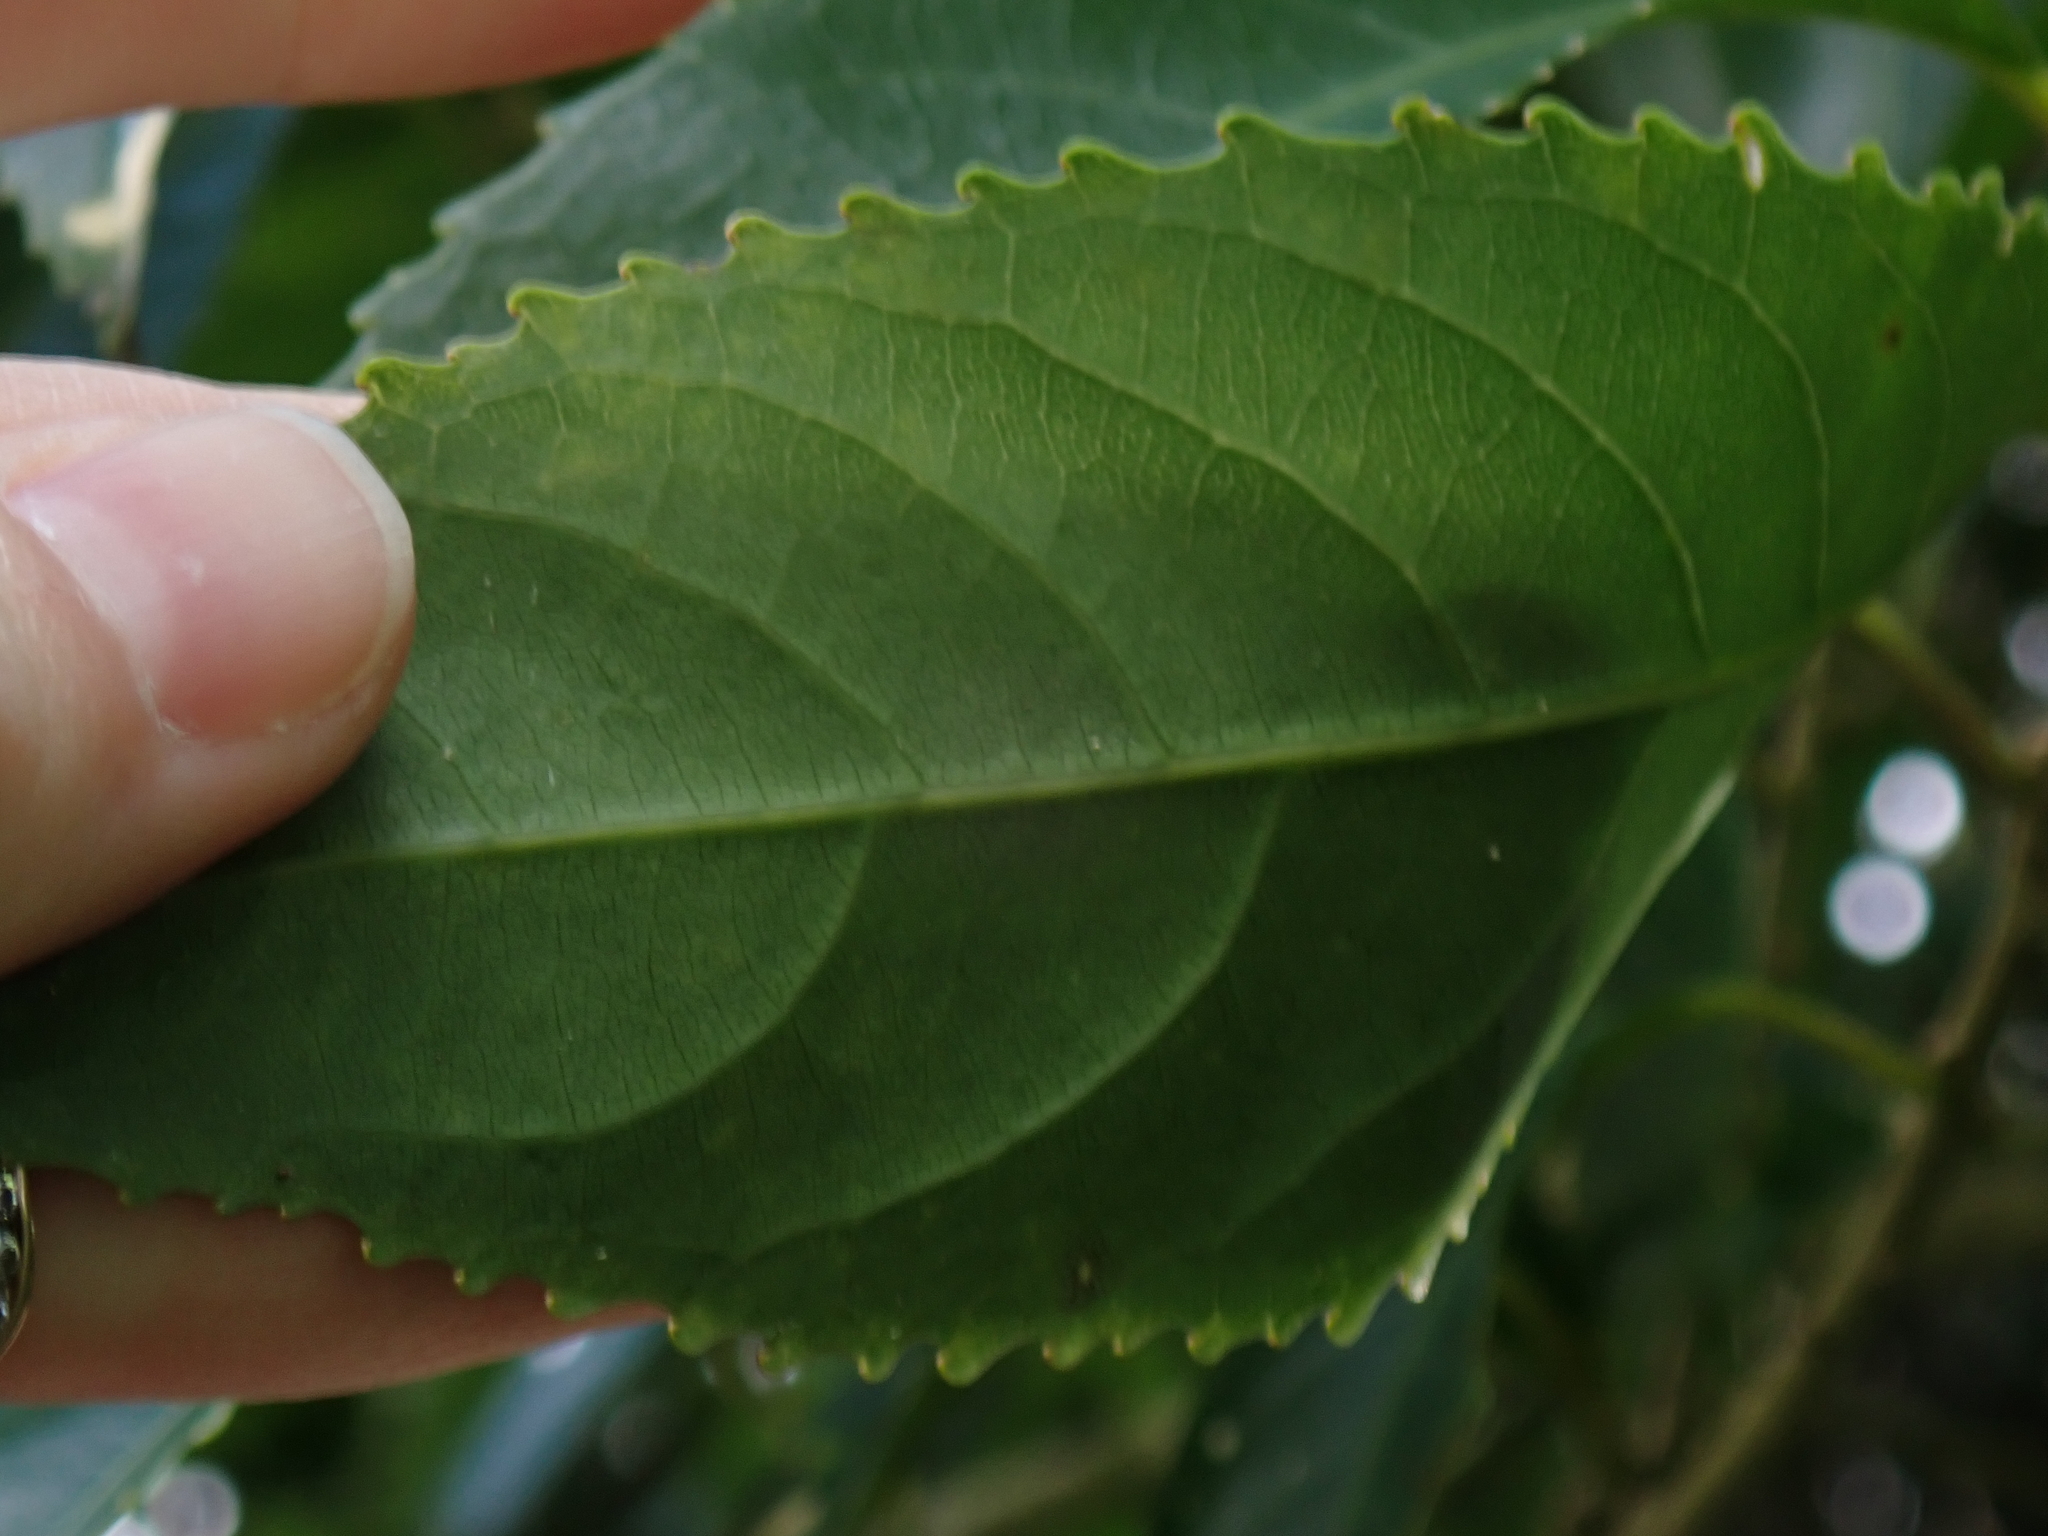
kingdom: Plantae
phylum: Tracheophyta
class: Magnoliopsida
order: Malpighiales
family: Violaceae
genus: Melicytus
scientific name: Melicytus ramiflorus
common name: Mahoe
